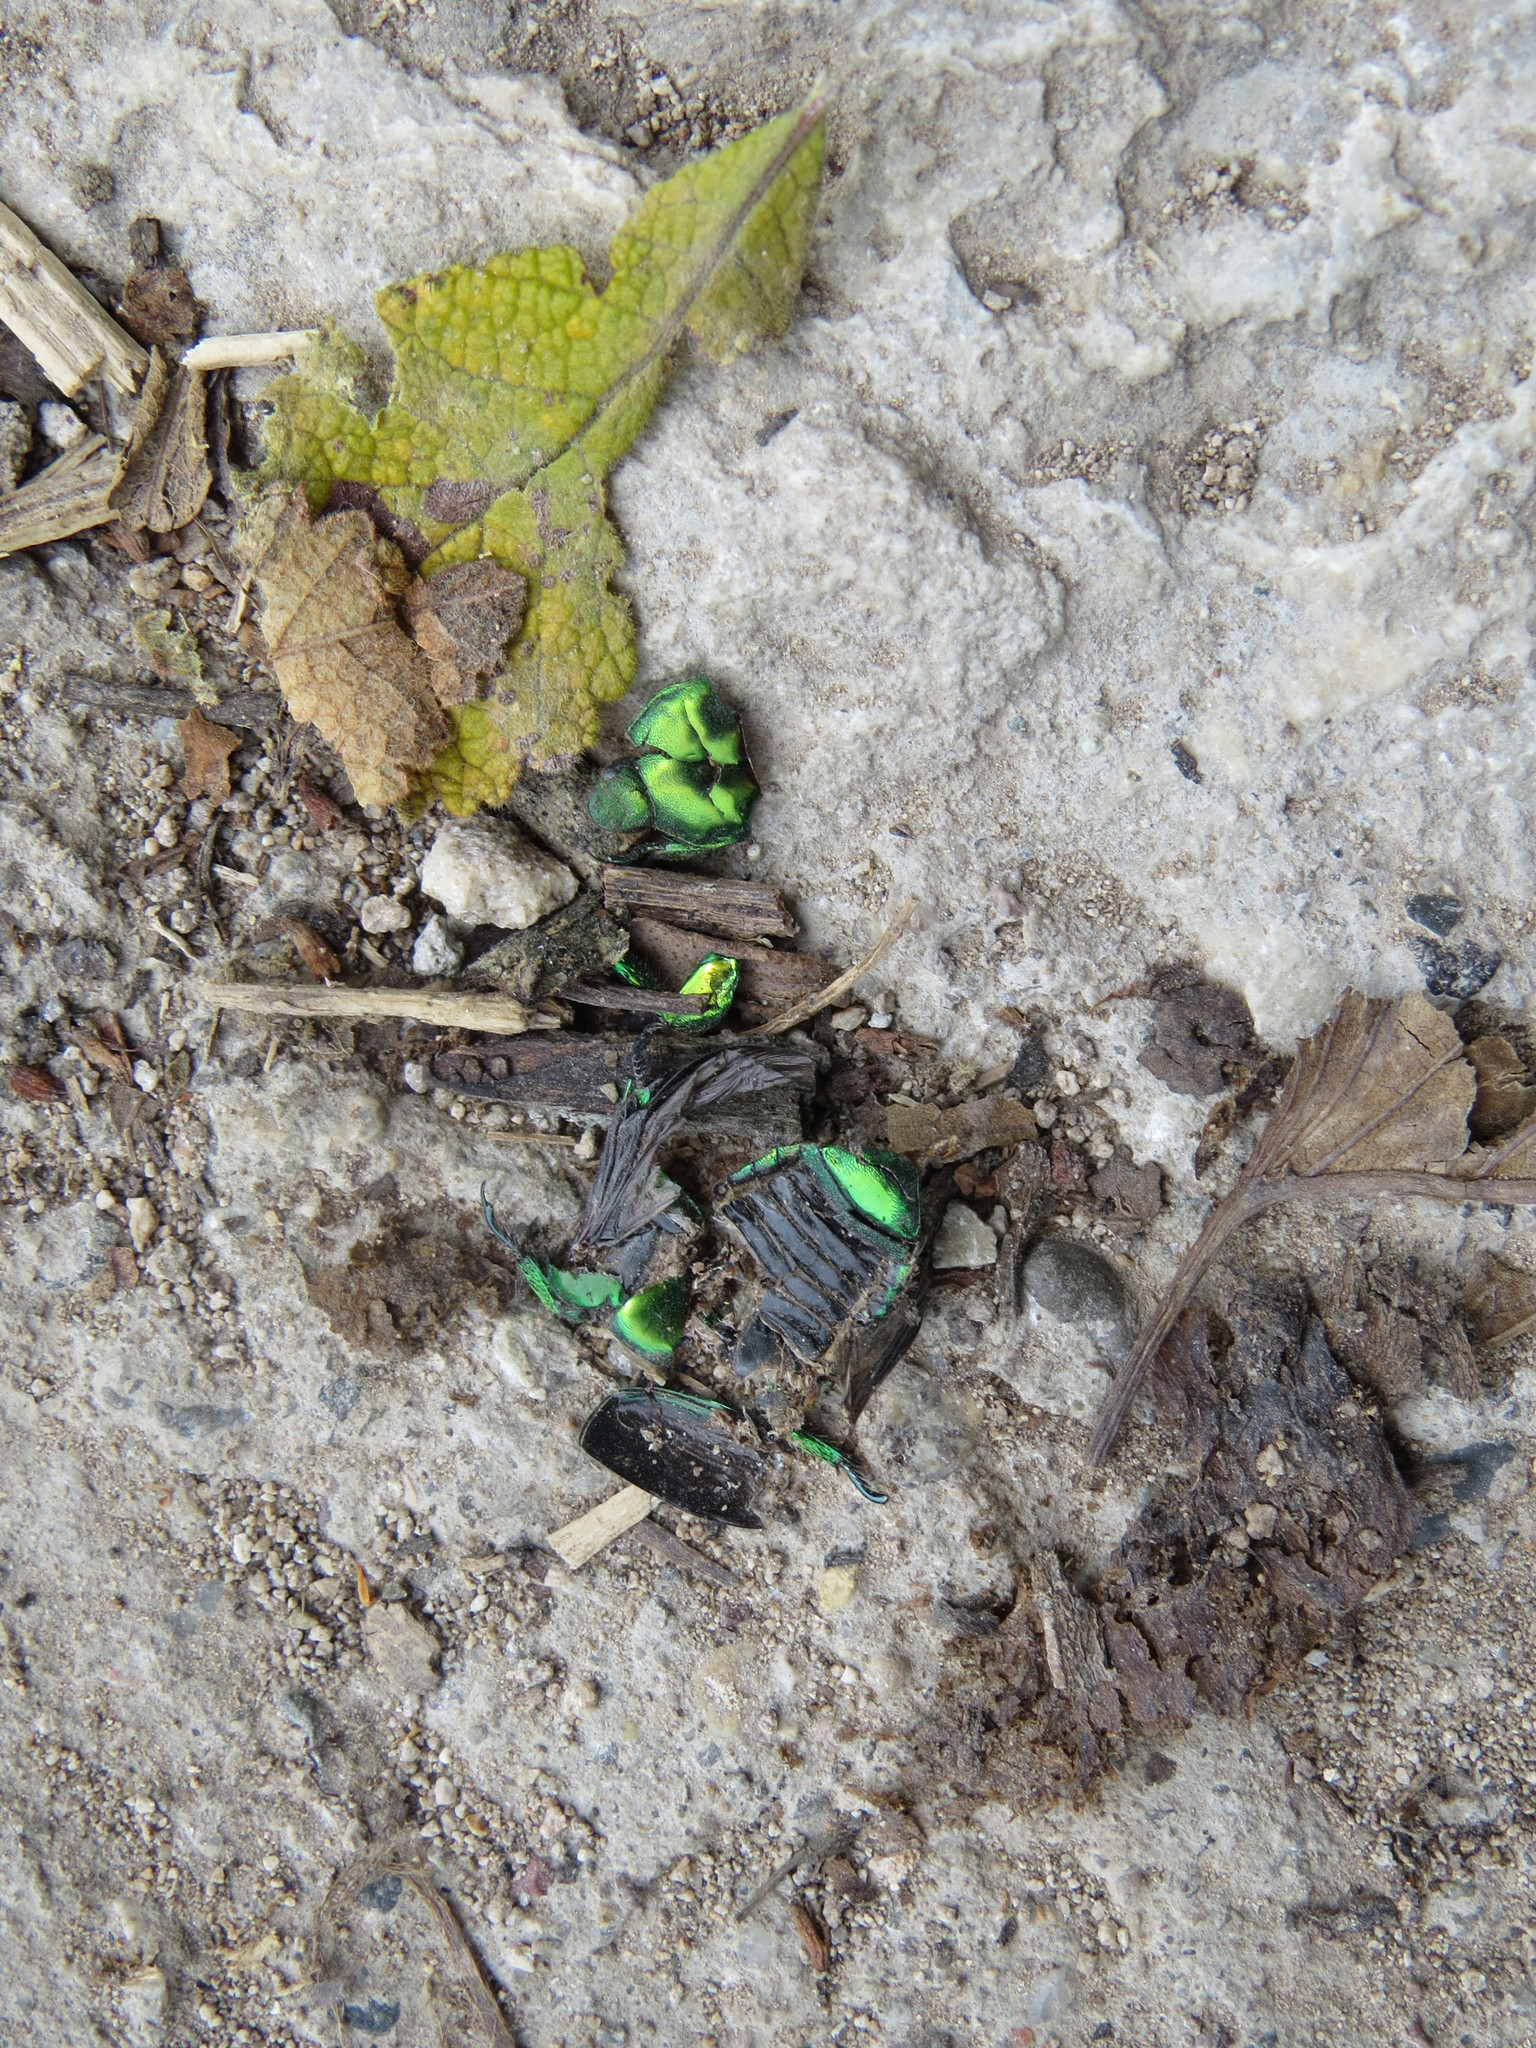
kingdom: Animalia
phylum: Arthropoda
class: Insecta
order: Coleoptera
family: Scarabaeidae
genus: Calomacraspis
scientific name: Calomacraspis splendens
